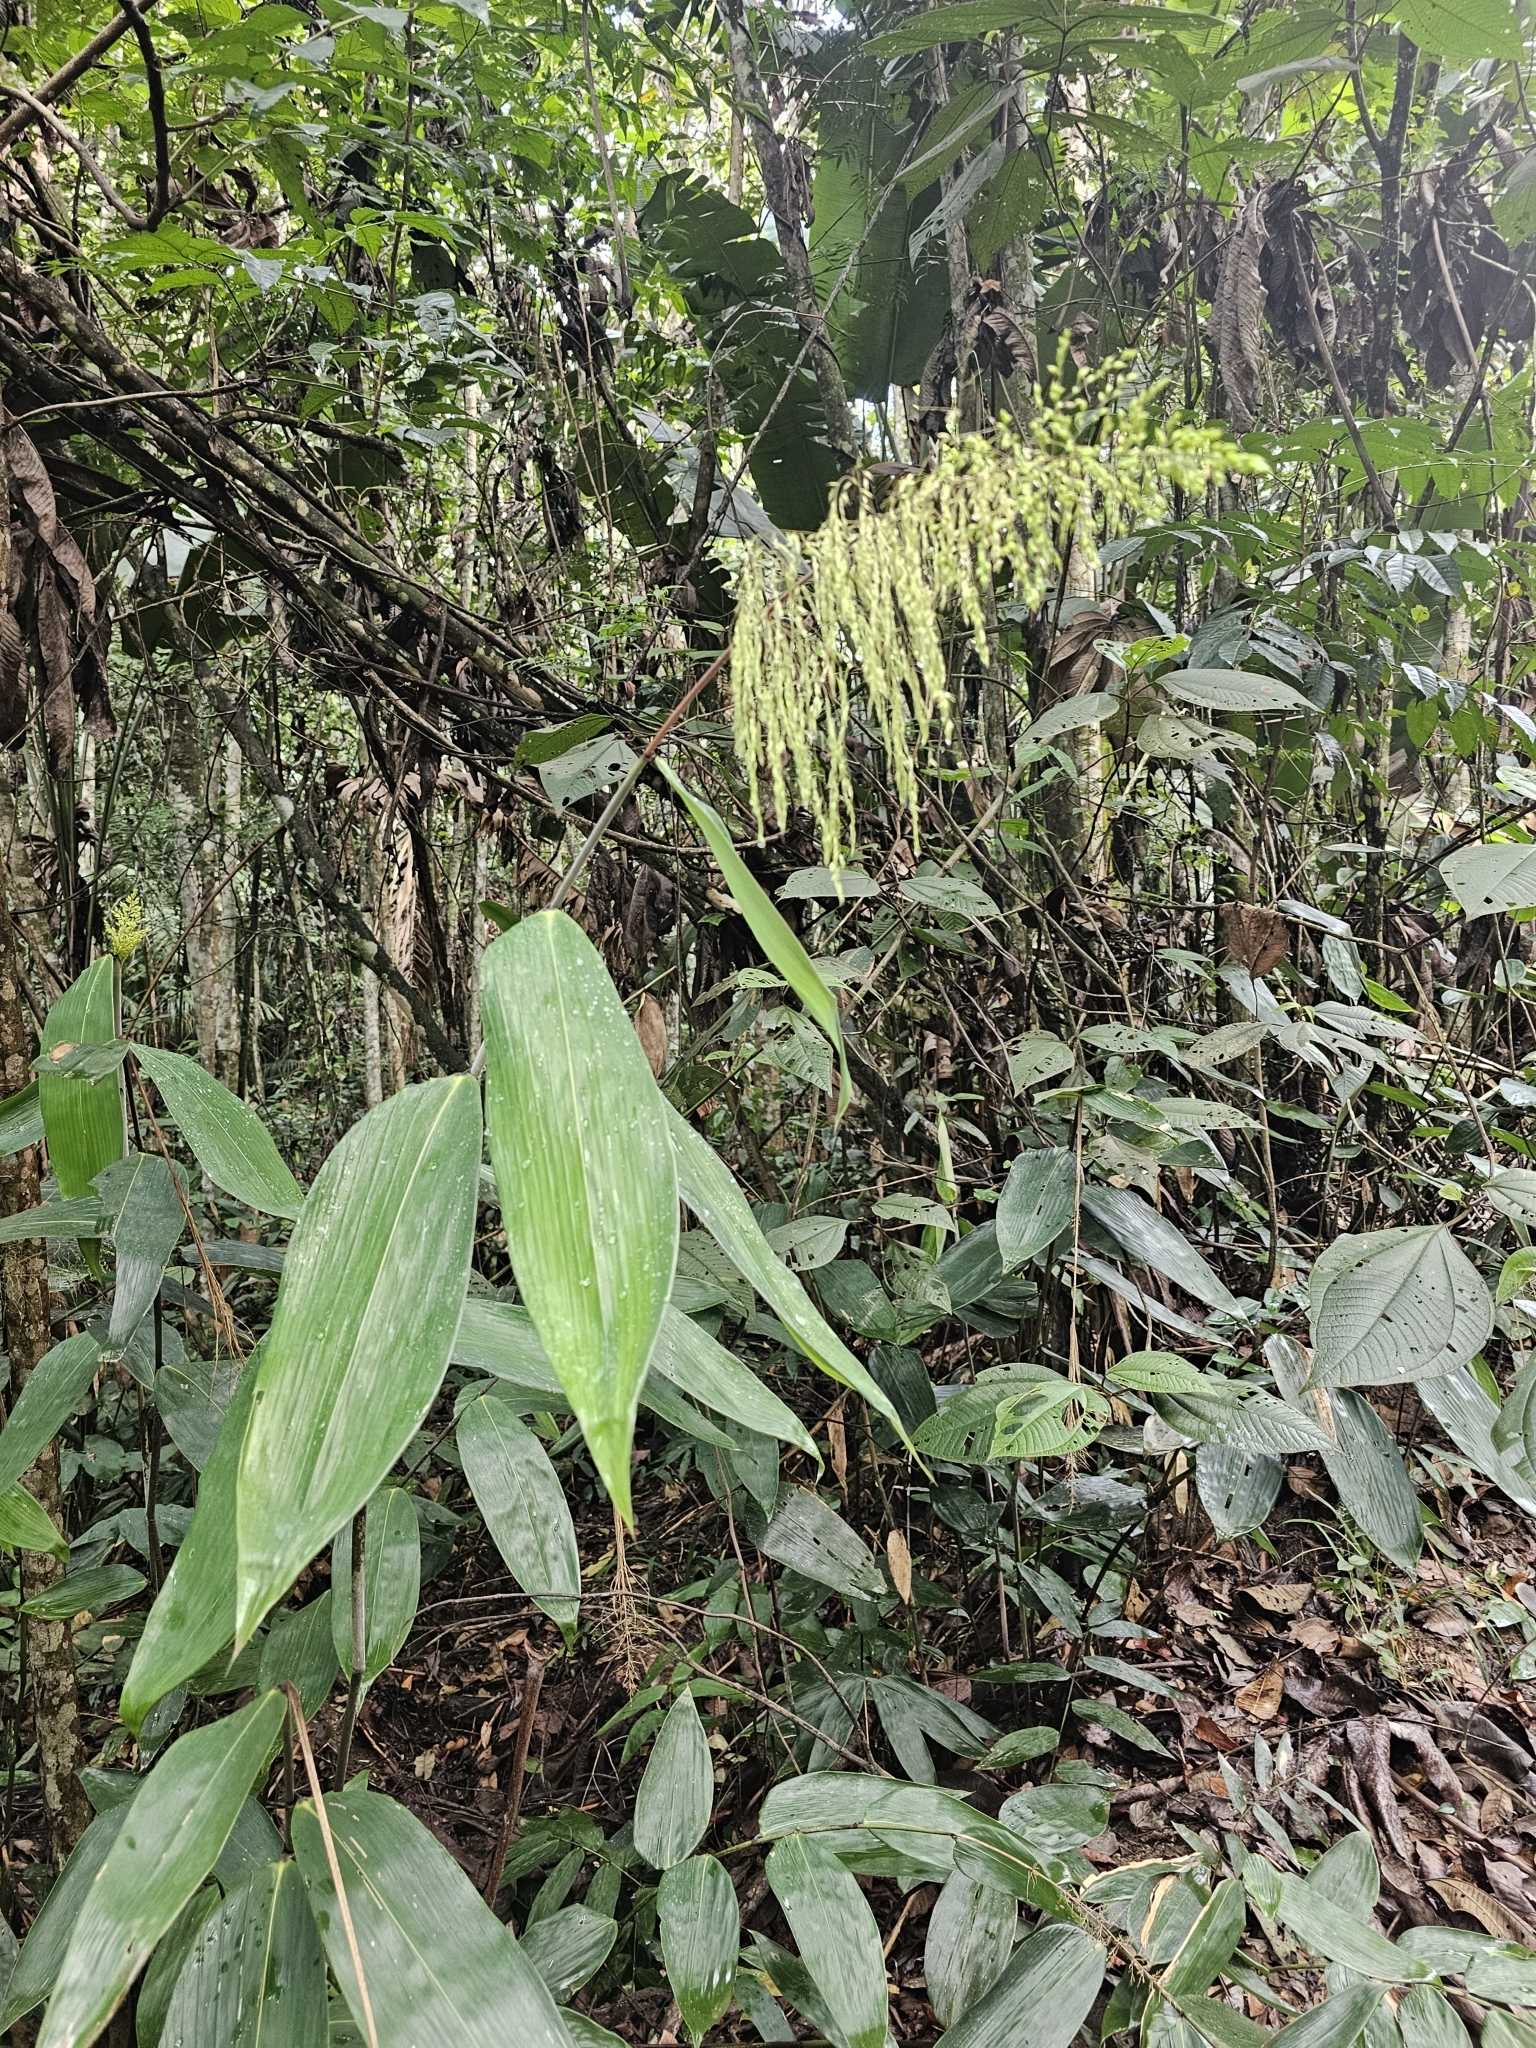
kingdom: Plantae
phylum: Tracheophyta
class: Liliopsida
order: Poales
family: Poaceae
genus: Taquara
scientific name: Taquara micrantha
